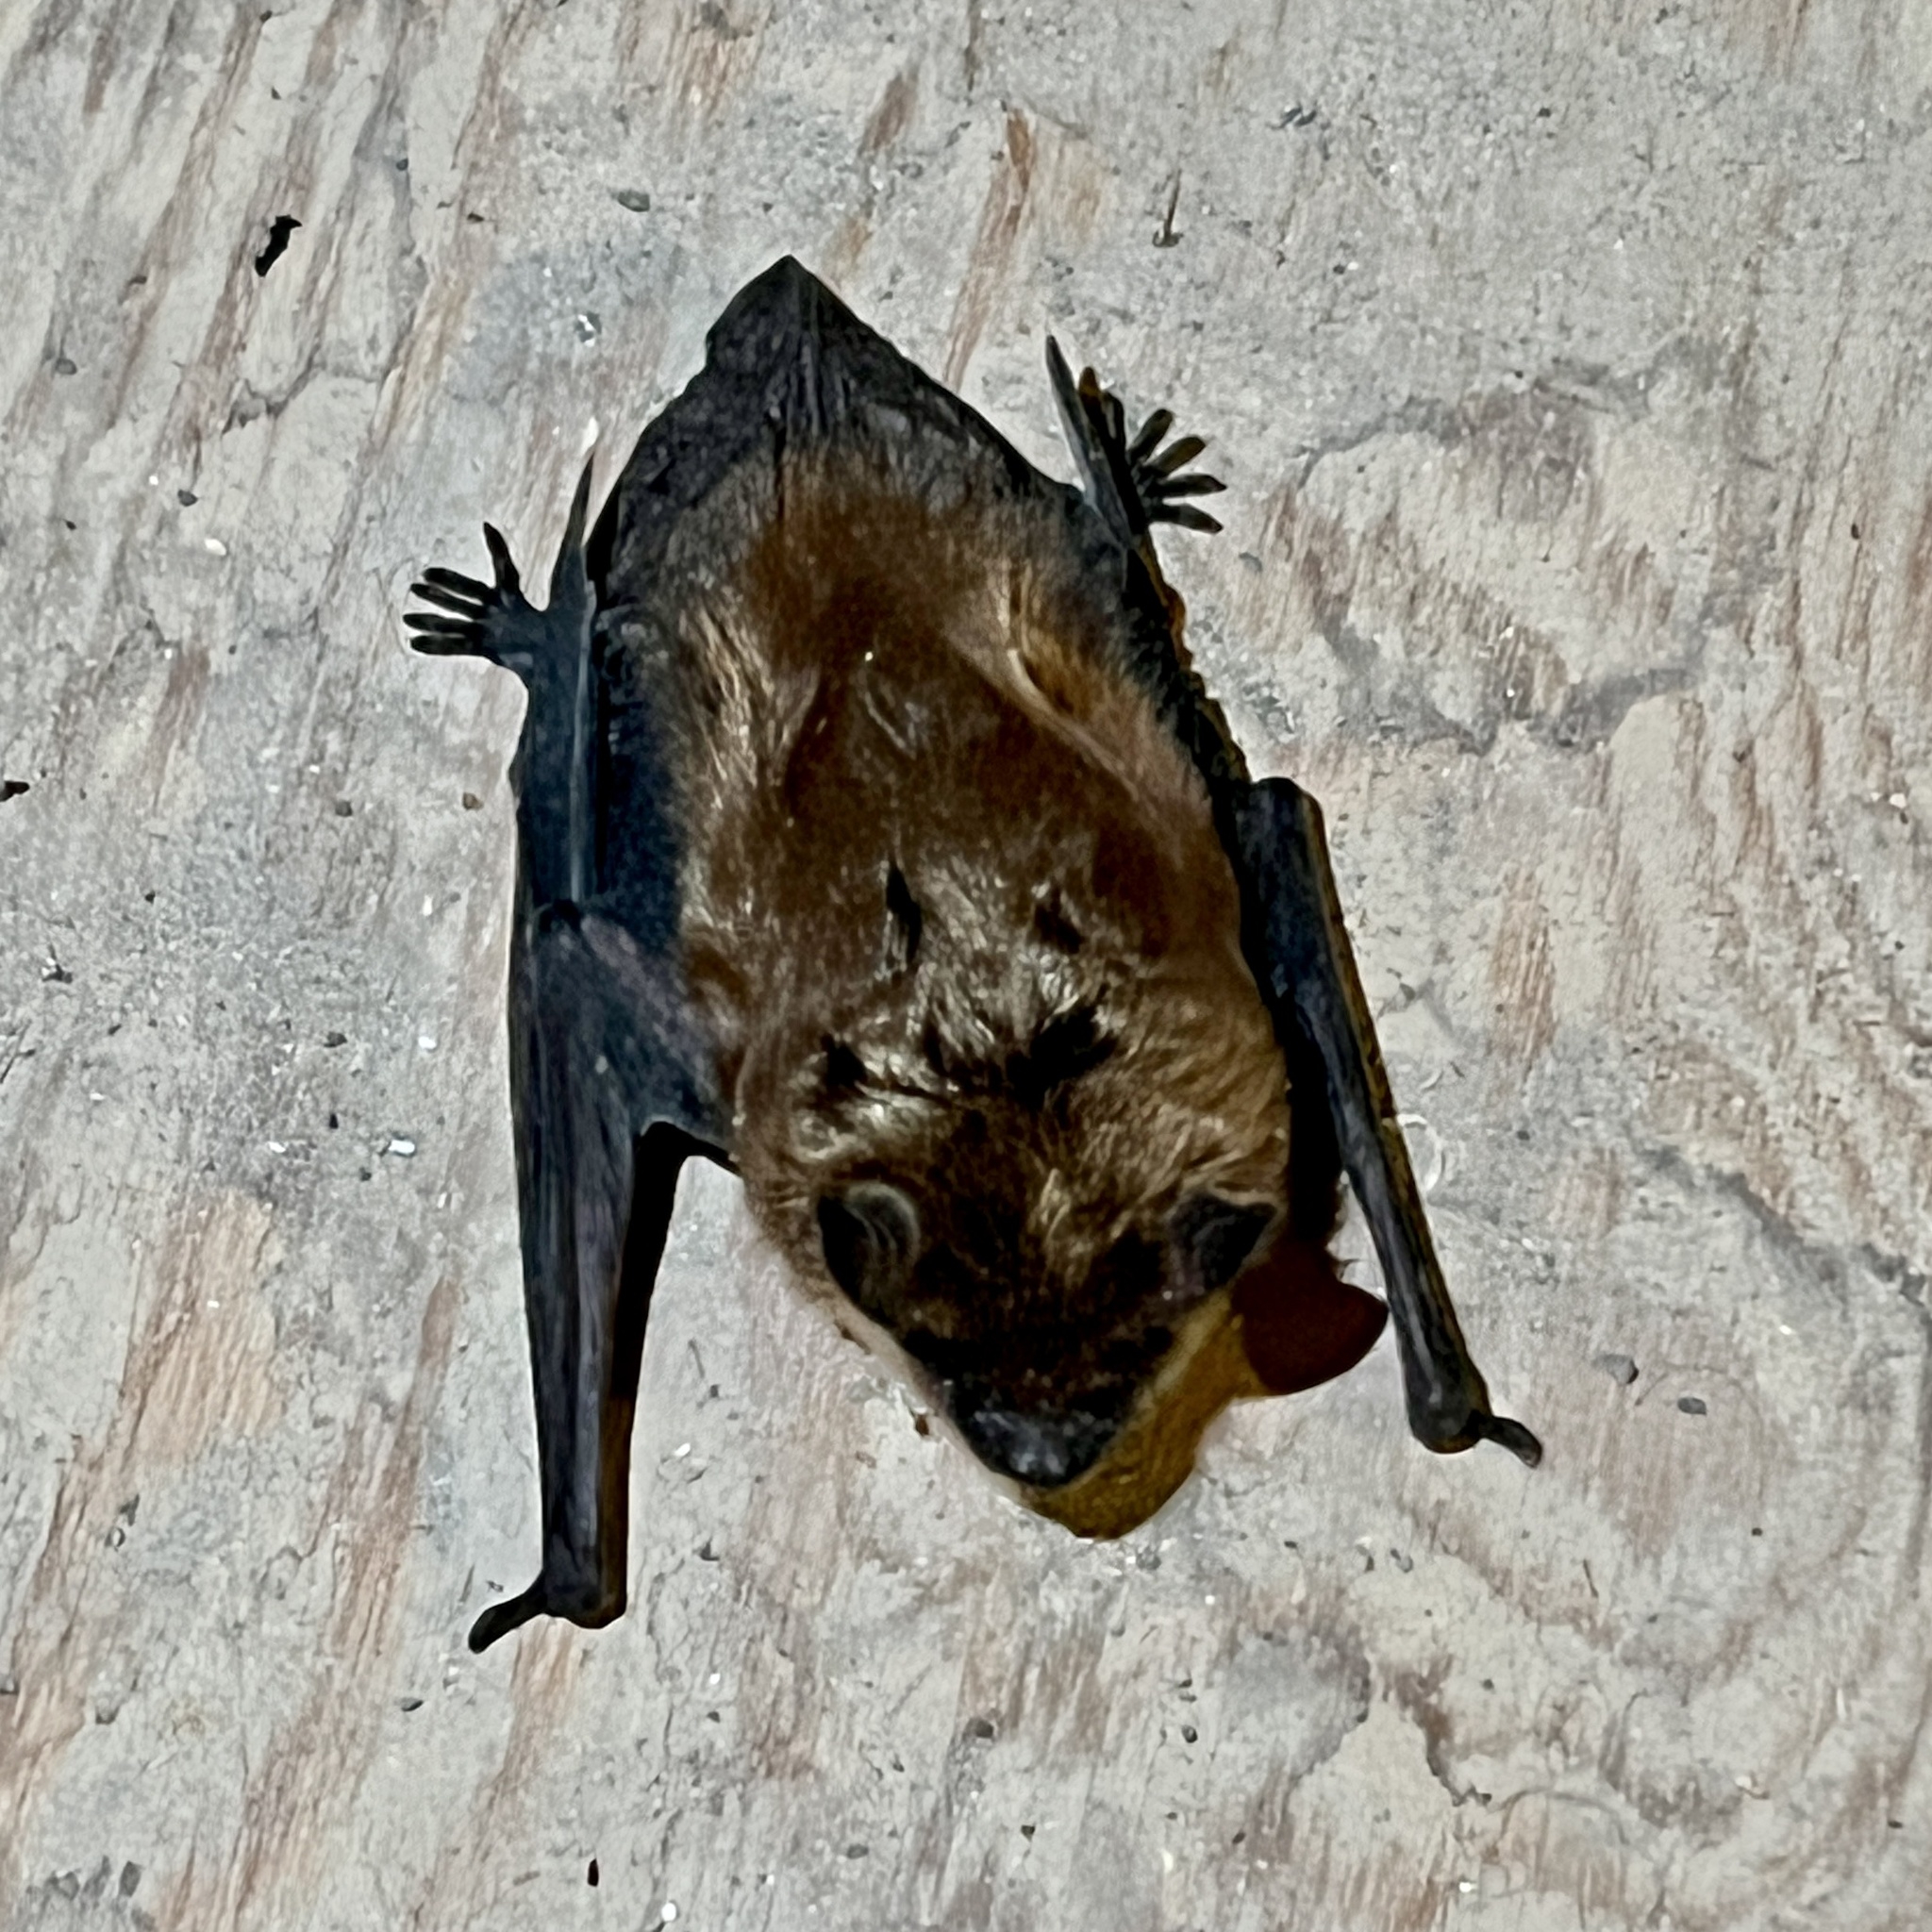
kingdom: Animalia
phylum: Chordata
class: Mammalia
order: Chiroptera
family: Vespertilionidae
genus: Eptesicus
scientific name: Eptesicus fuscus
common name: Big brown bat
